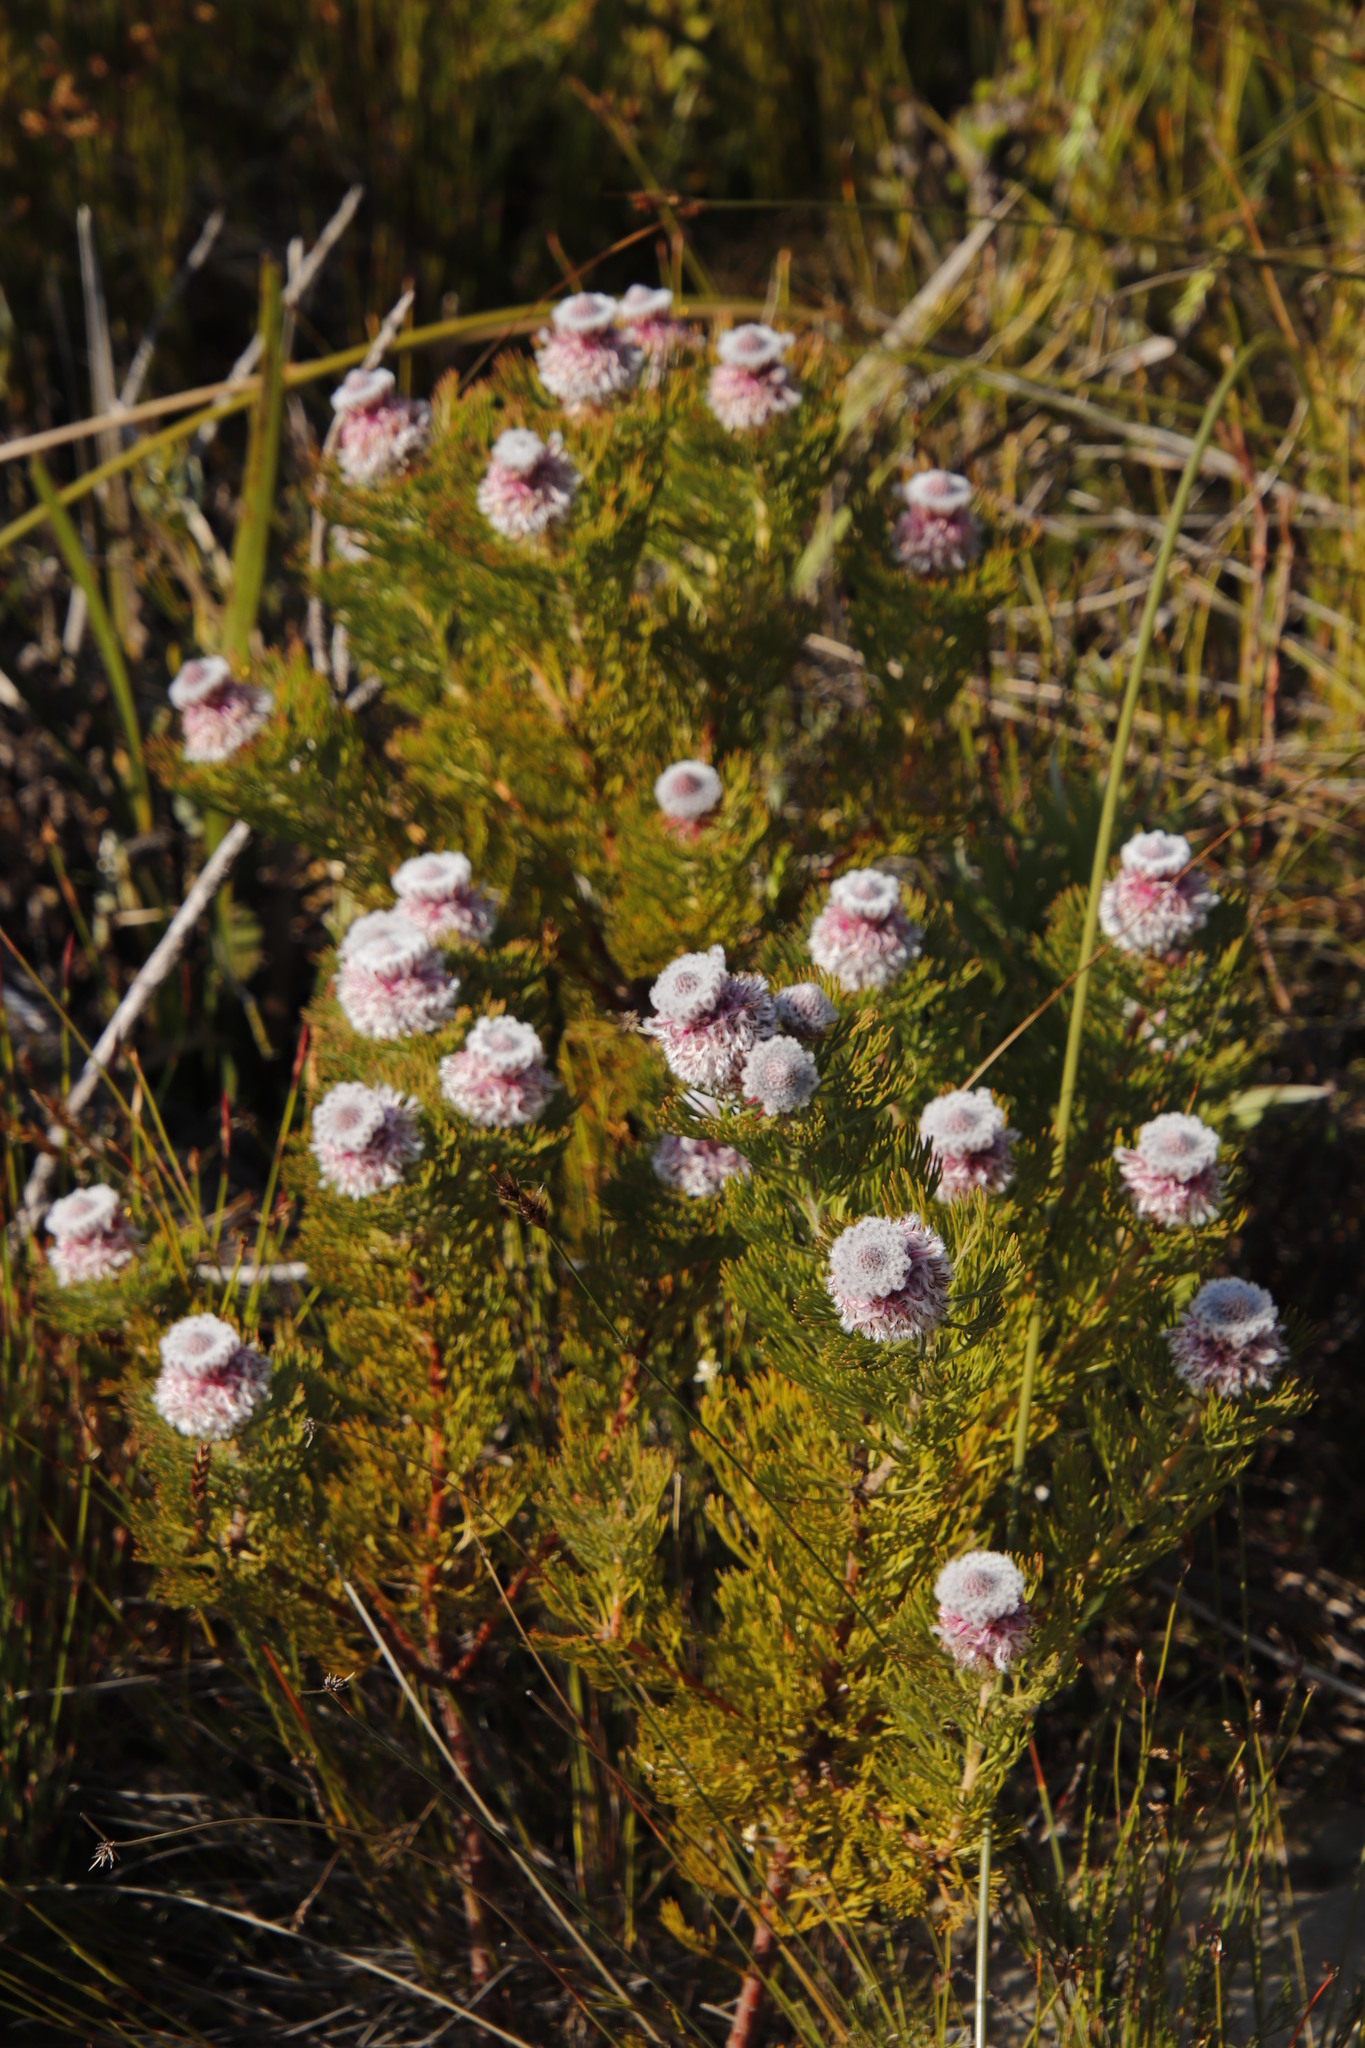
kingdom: Plantae
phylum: Tracheophyta
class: Magnoliopsida
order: Proteales
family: Proteaceae
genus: Serruria
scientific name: Serruria hirsuta
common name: Swartkops spiderhead
